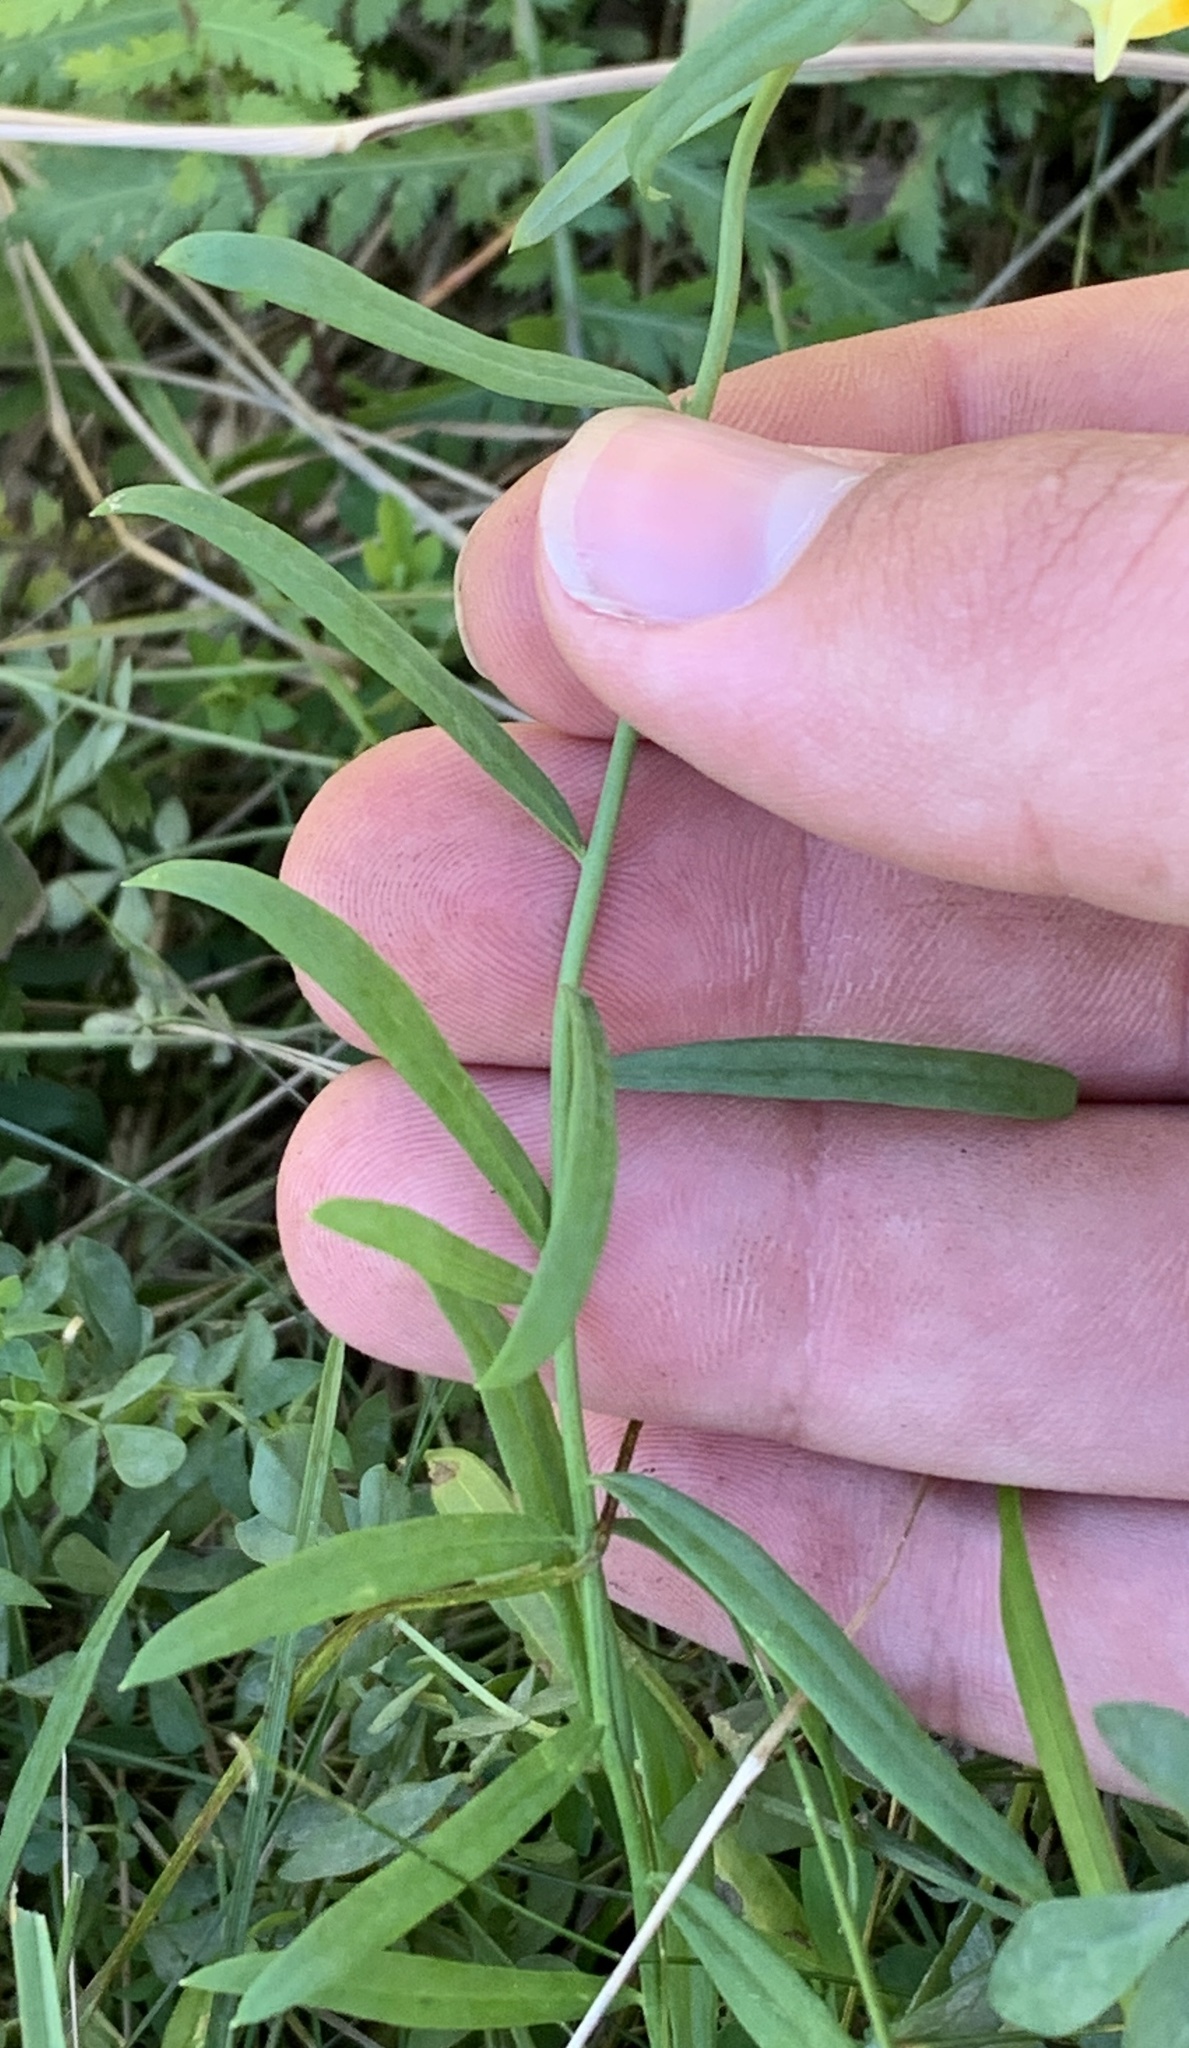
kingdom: Plantae
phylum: Tracheophyta
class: Magnoliopsida
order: Lamiales
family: Plantaginaceae
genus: Linaria
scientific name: Linaria vulgaris
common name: Butter and eggs
